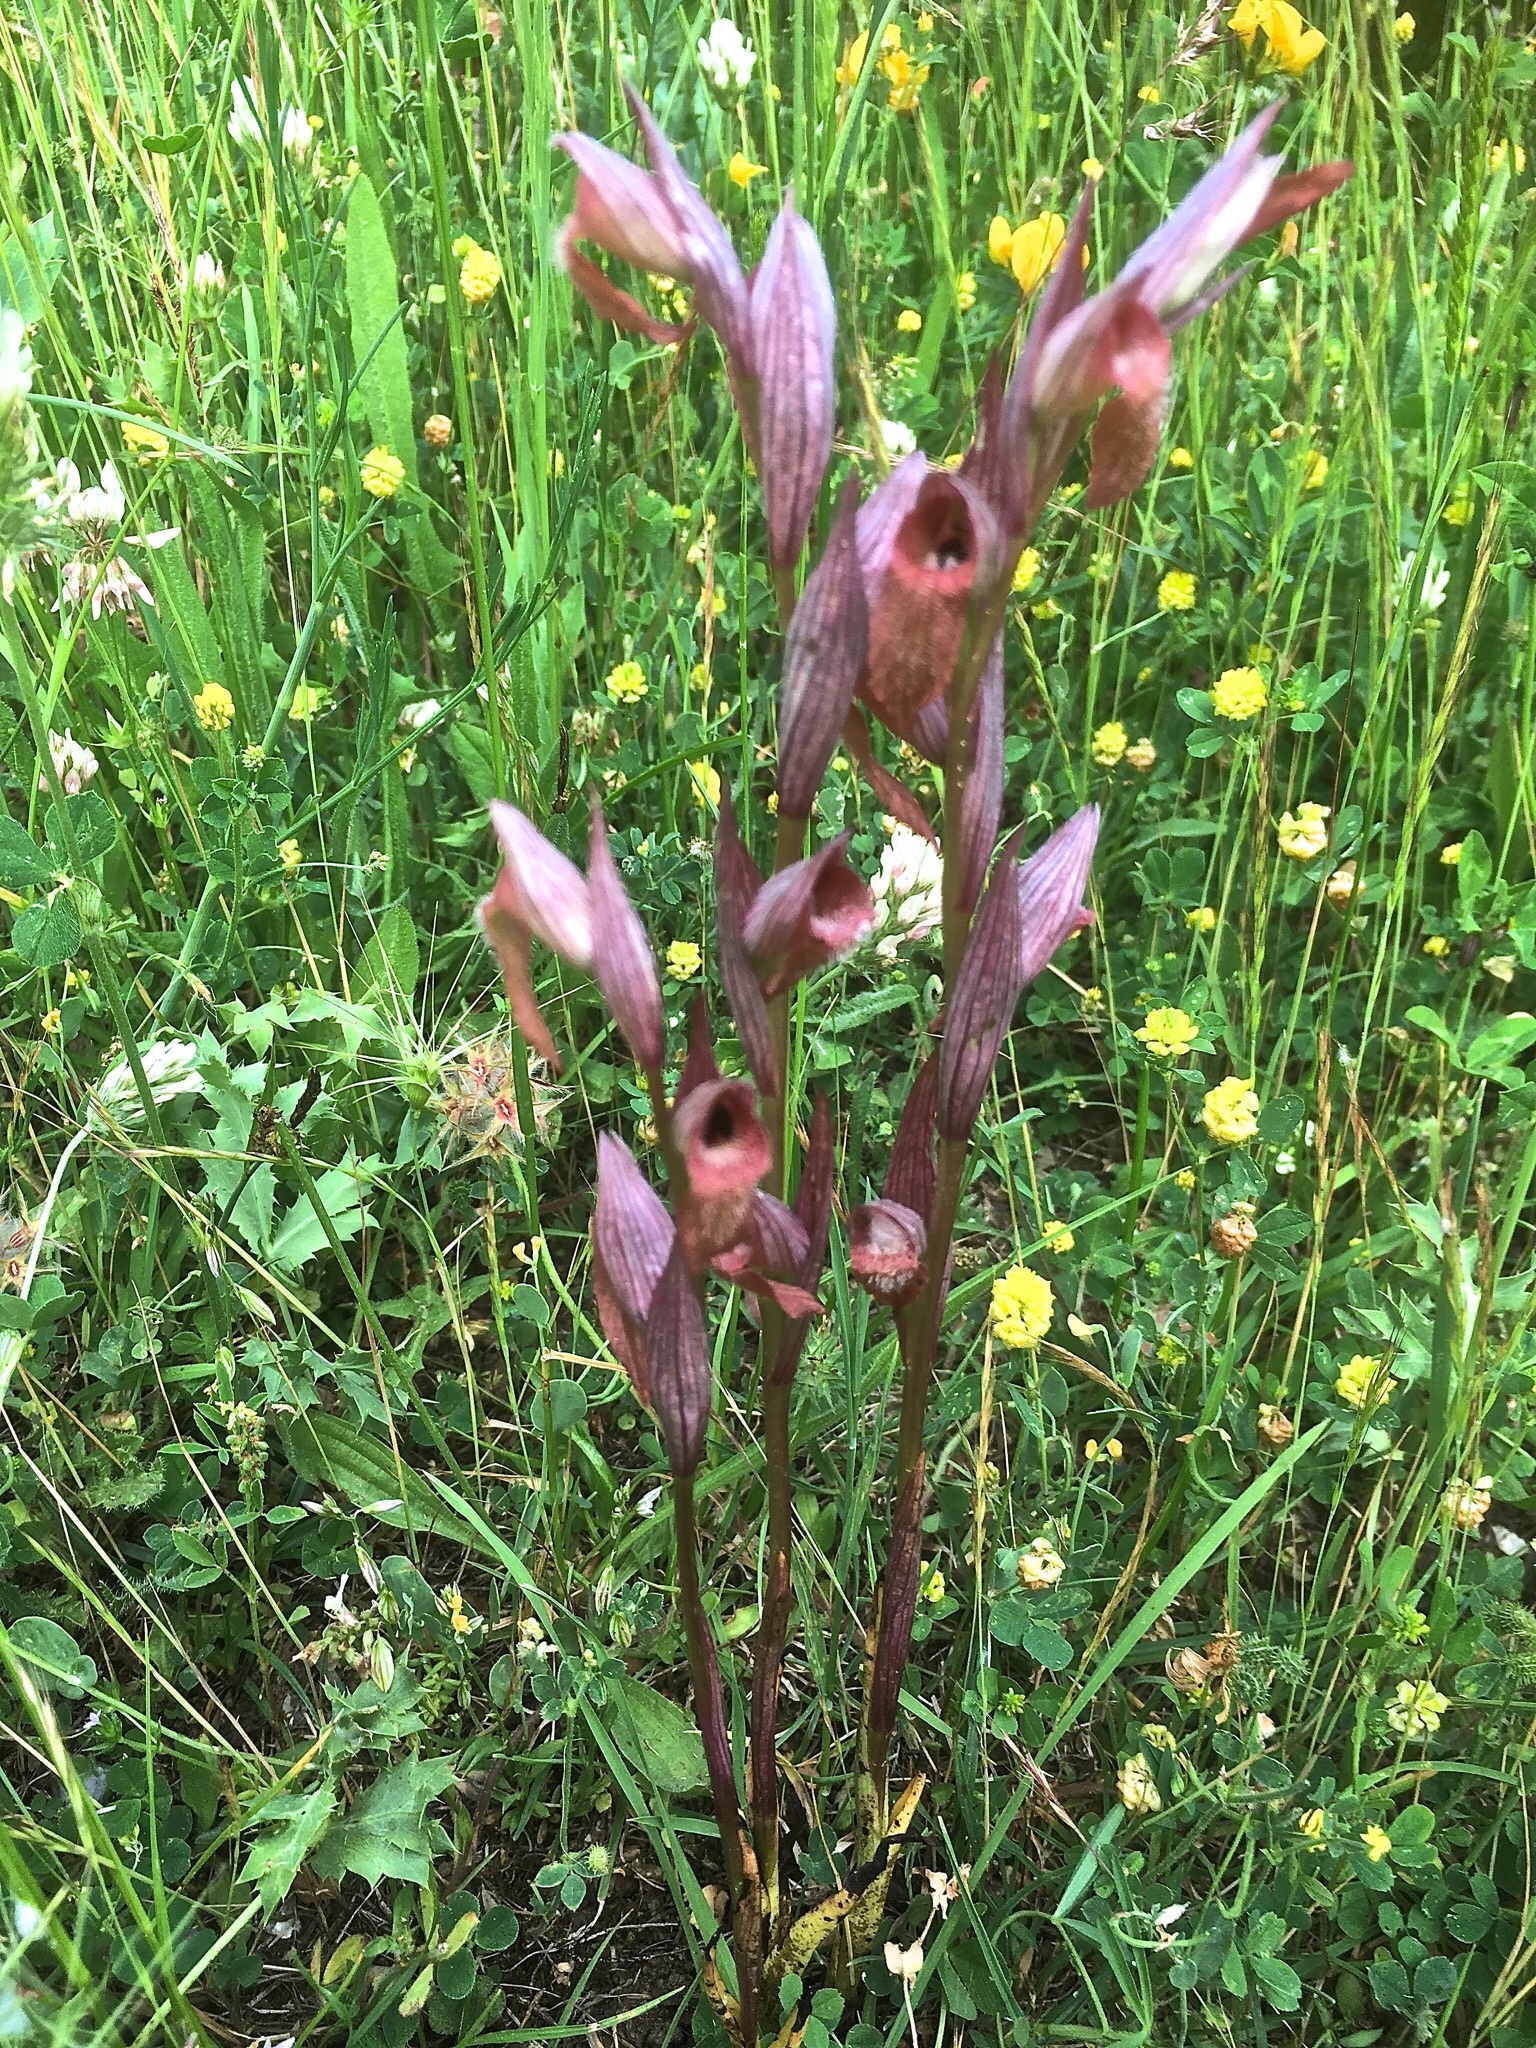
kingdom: Plantae
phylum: Tracheophyta
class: Liliopsida
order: Asparagales
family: Orchidaceae
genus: Serapias
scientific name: Serapias vomeracea
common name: Long-lipped tongue-orchid
